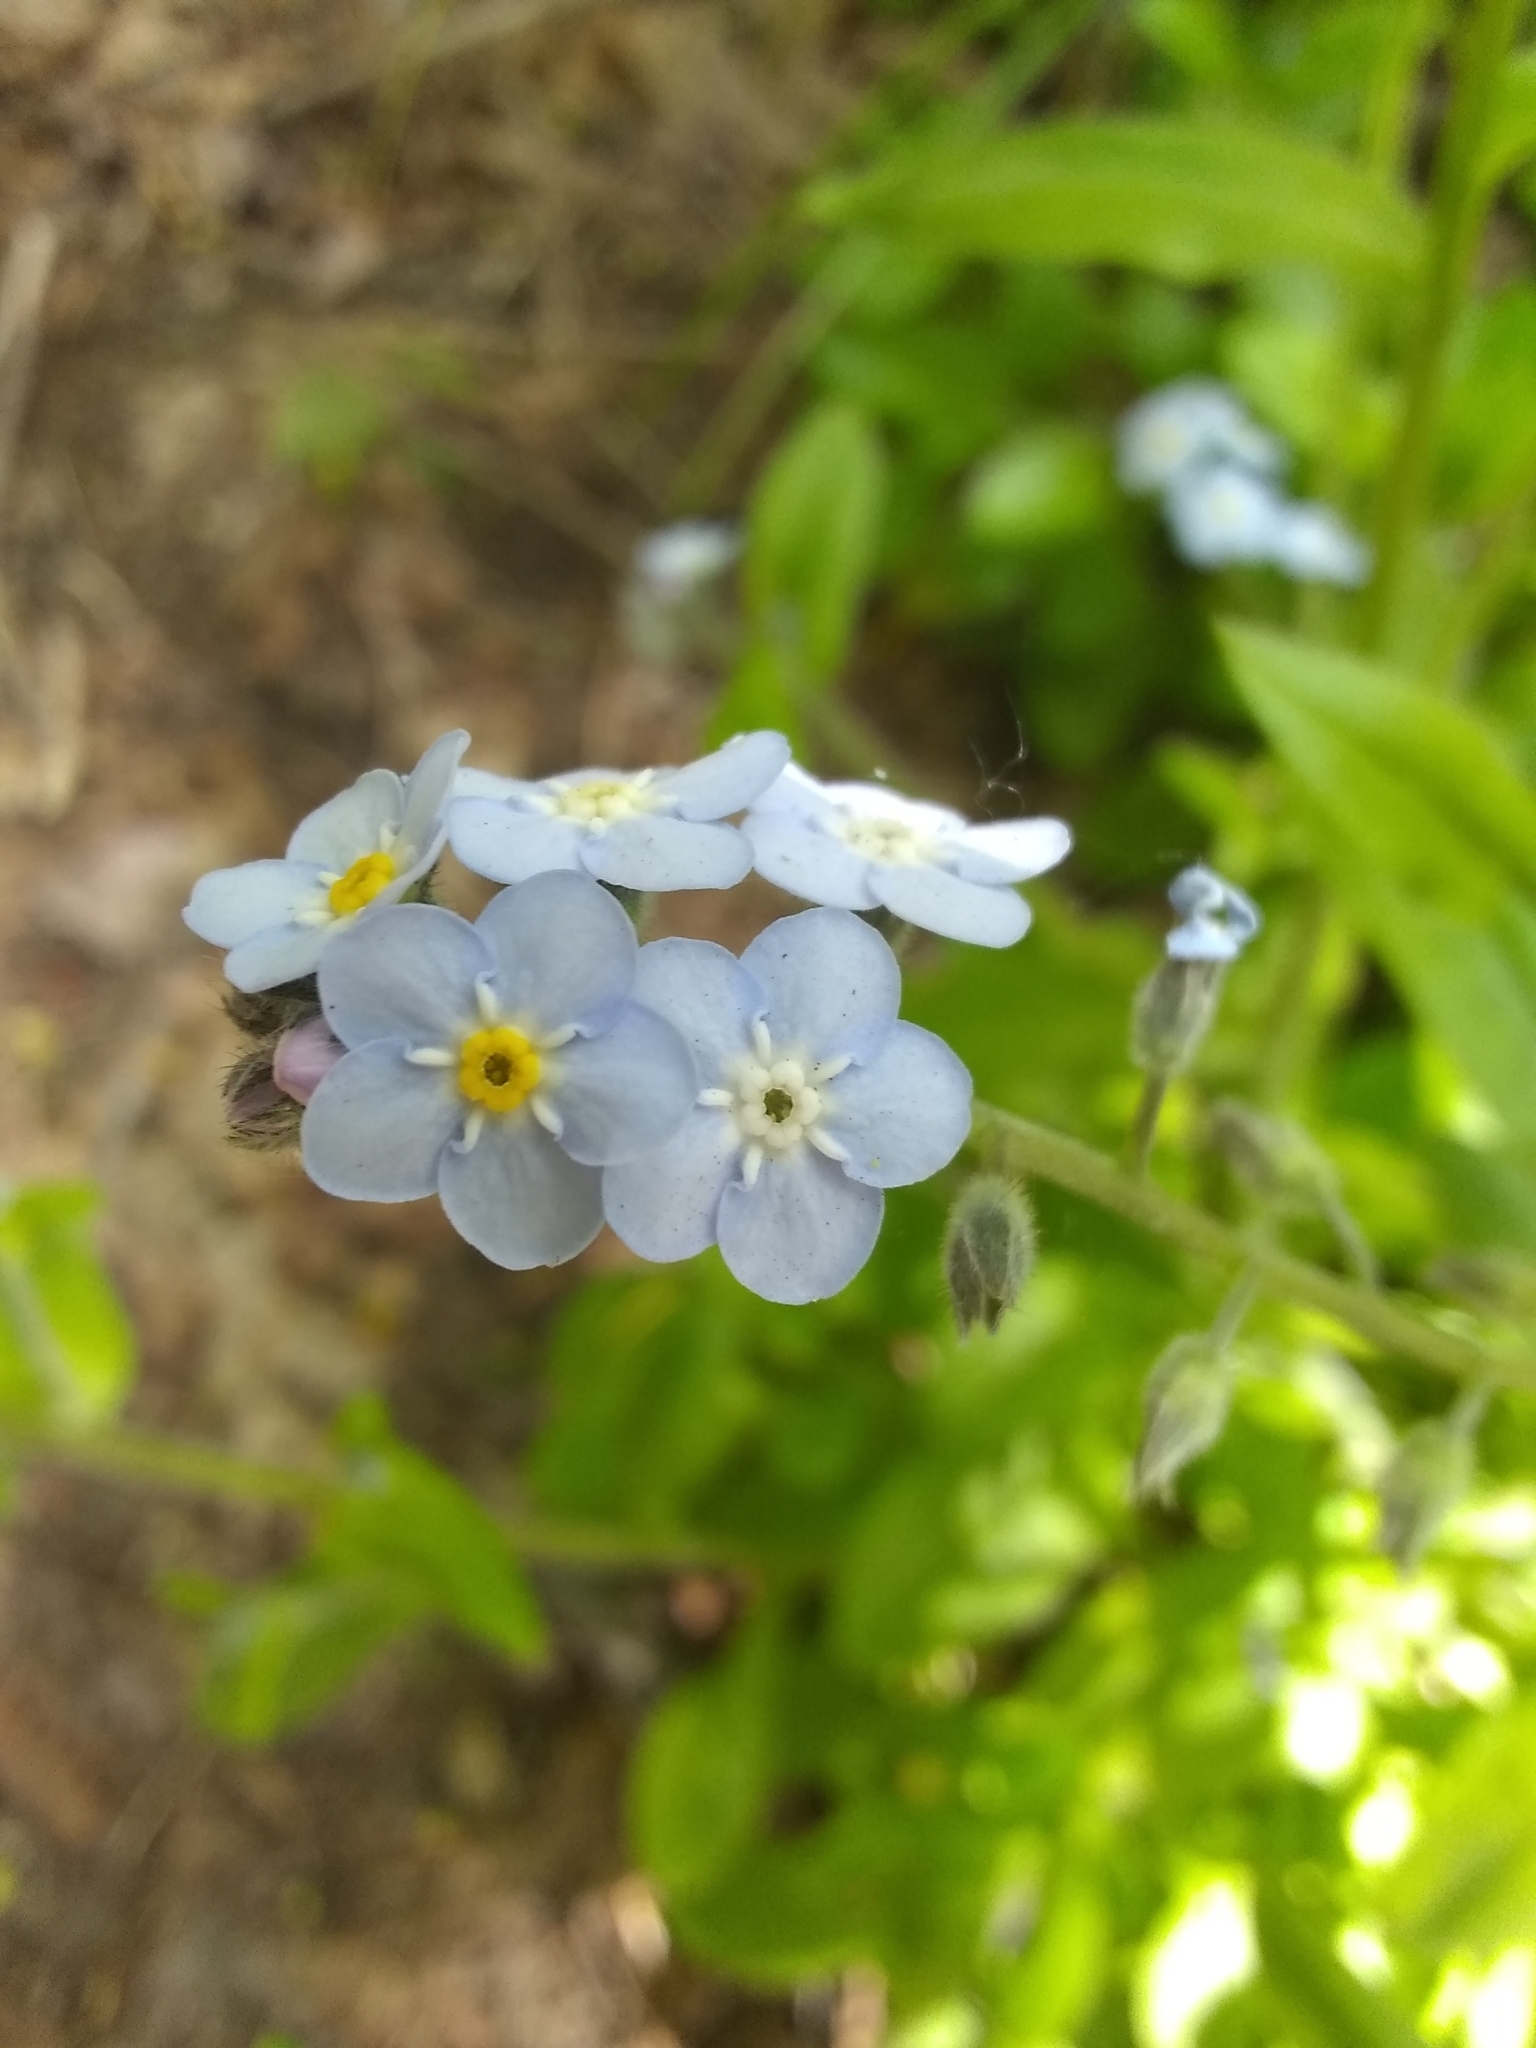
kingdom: Plantae
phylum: Tracheophyta
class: Magnoliopsida
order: Boraginales
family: Boraginaceae
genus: Myosotis
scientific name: Myosotis latifolia
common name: Broadleaf forget-me-not
